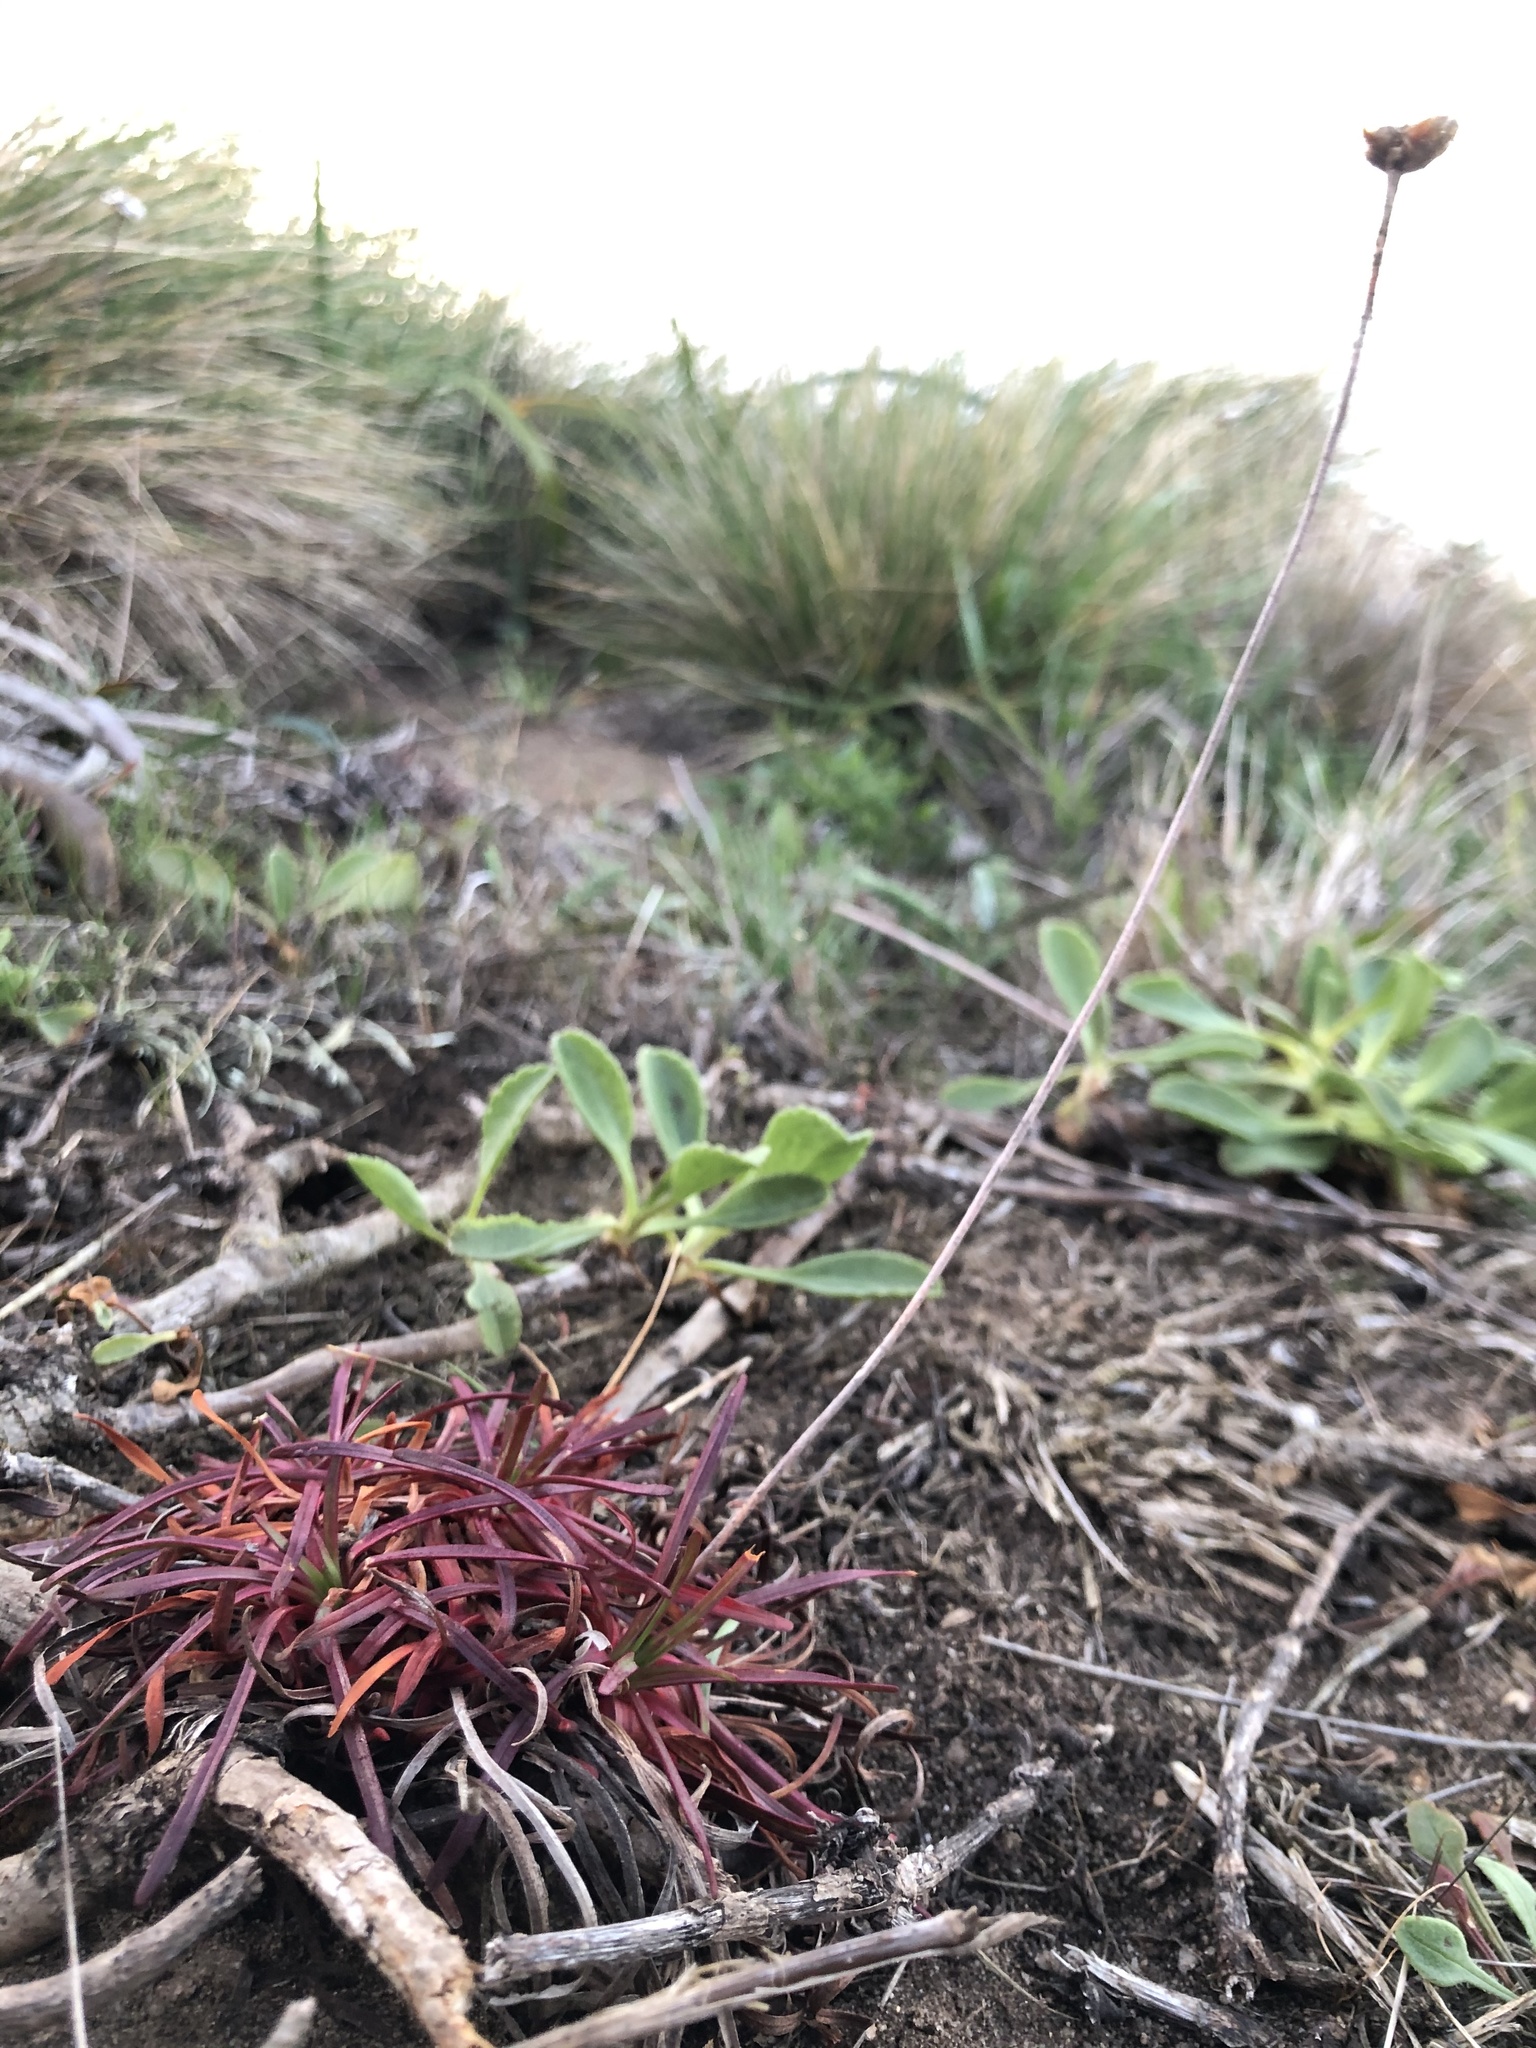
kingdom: Plantae
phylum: Tracheophyta
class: Magnoliopsida
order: Caryophyllales
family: Plumbaginaceae
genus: Armeria
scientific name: Armeria maritima
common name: Thrift
